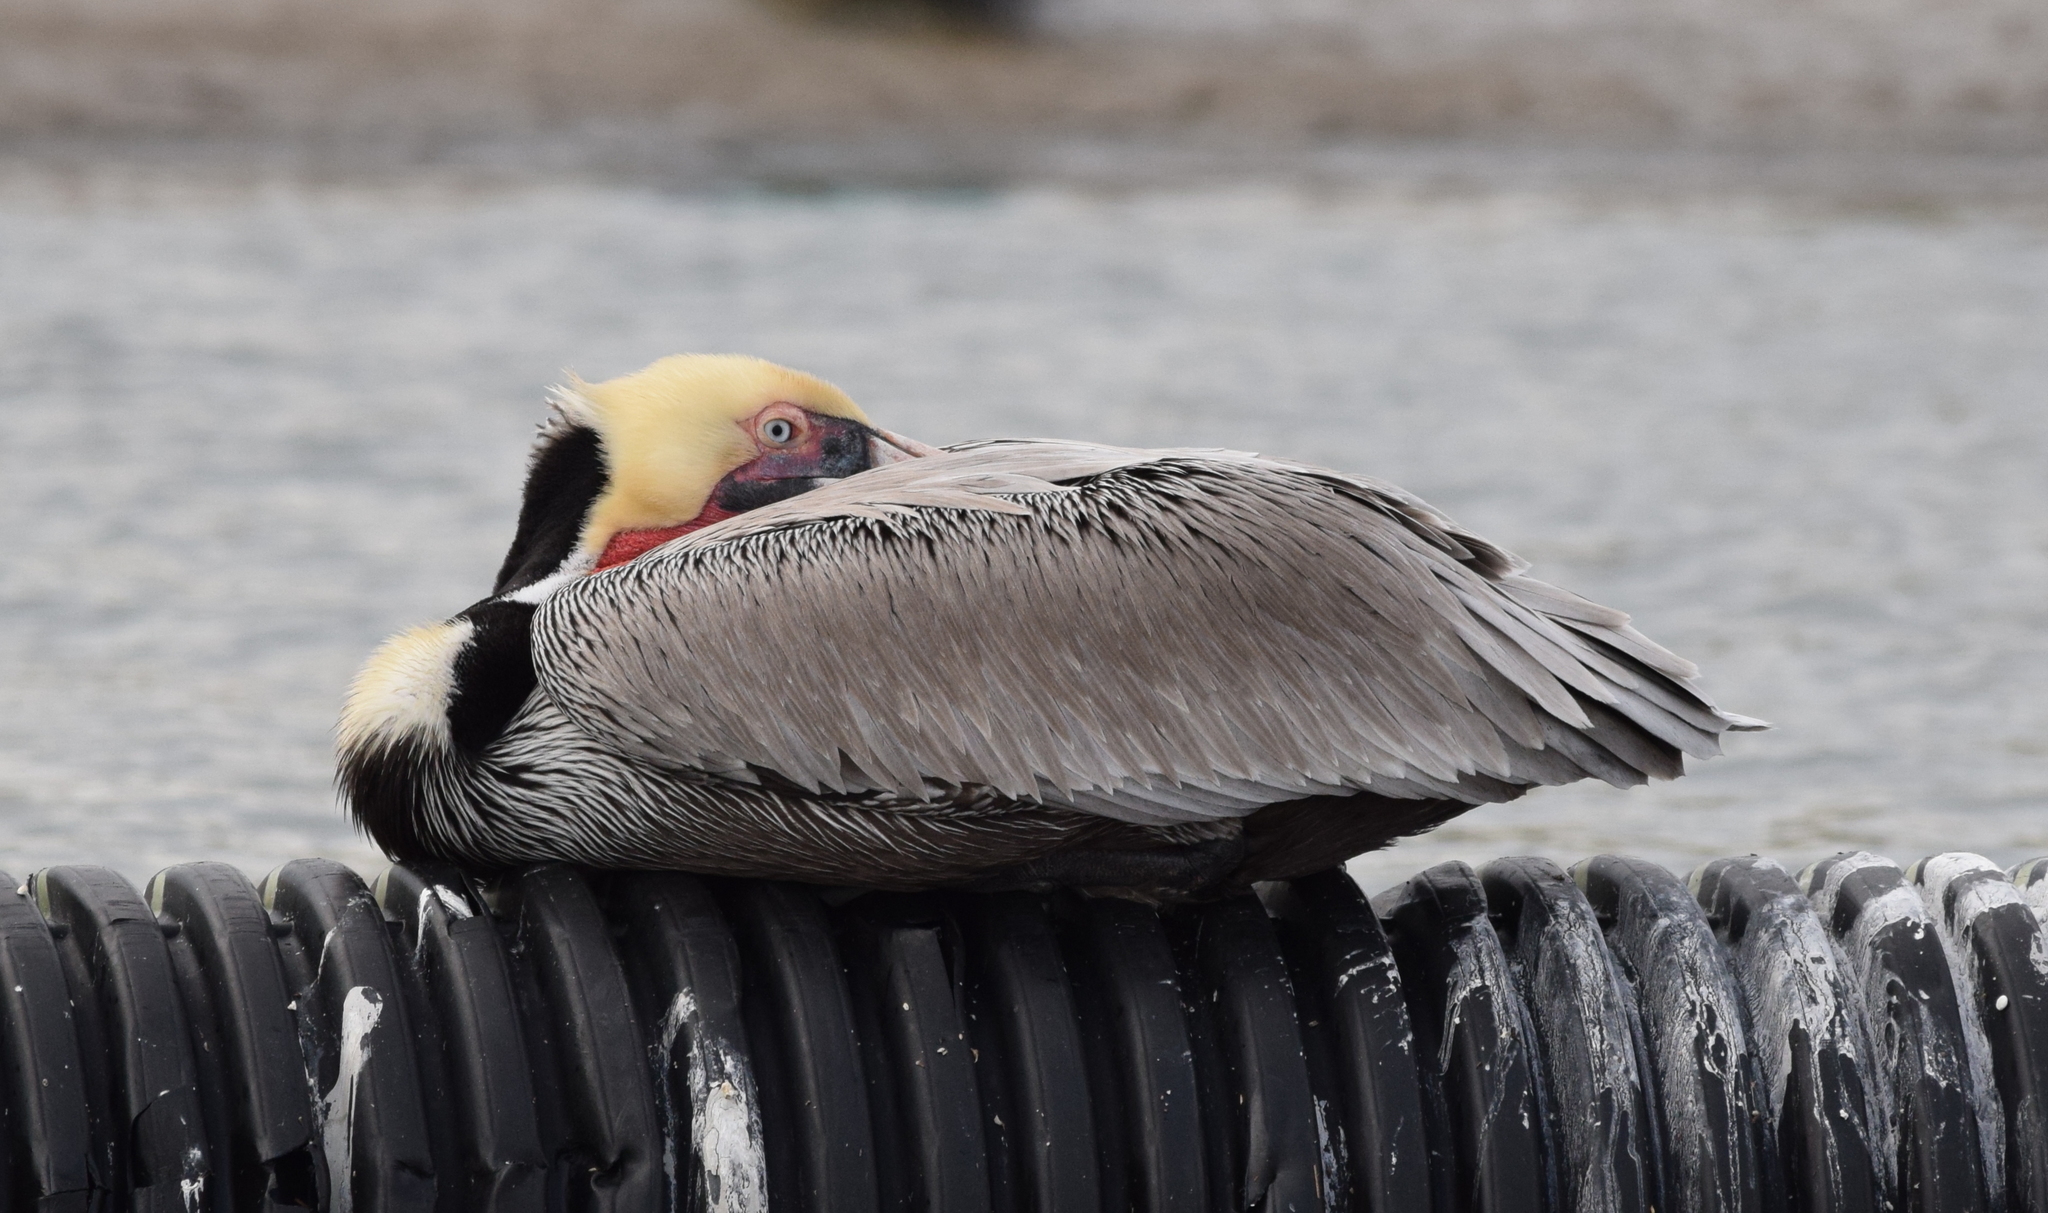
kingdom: Animalia
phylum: Chordata
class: Aves
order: Pelecaniformes
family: Pelecanidae
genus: Pelecanus
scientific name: Pelecanus occidentalis
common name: Brown pelican
